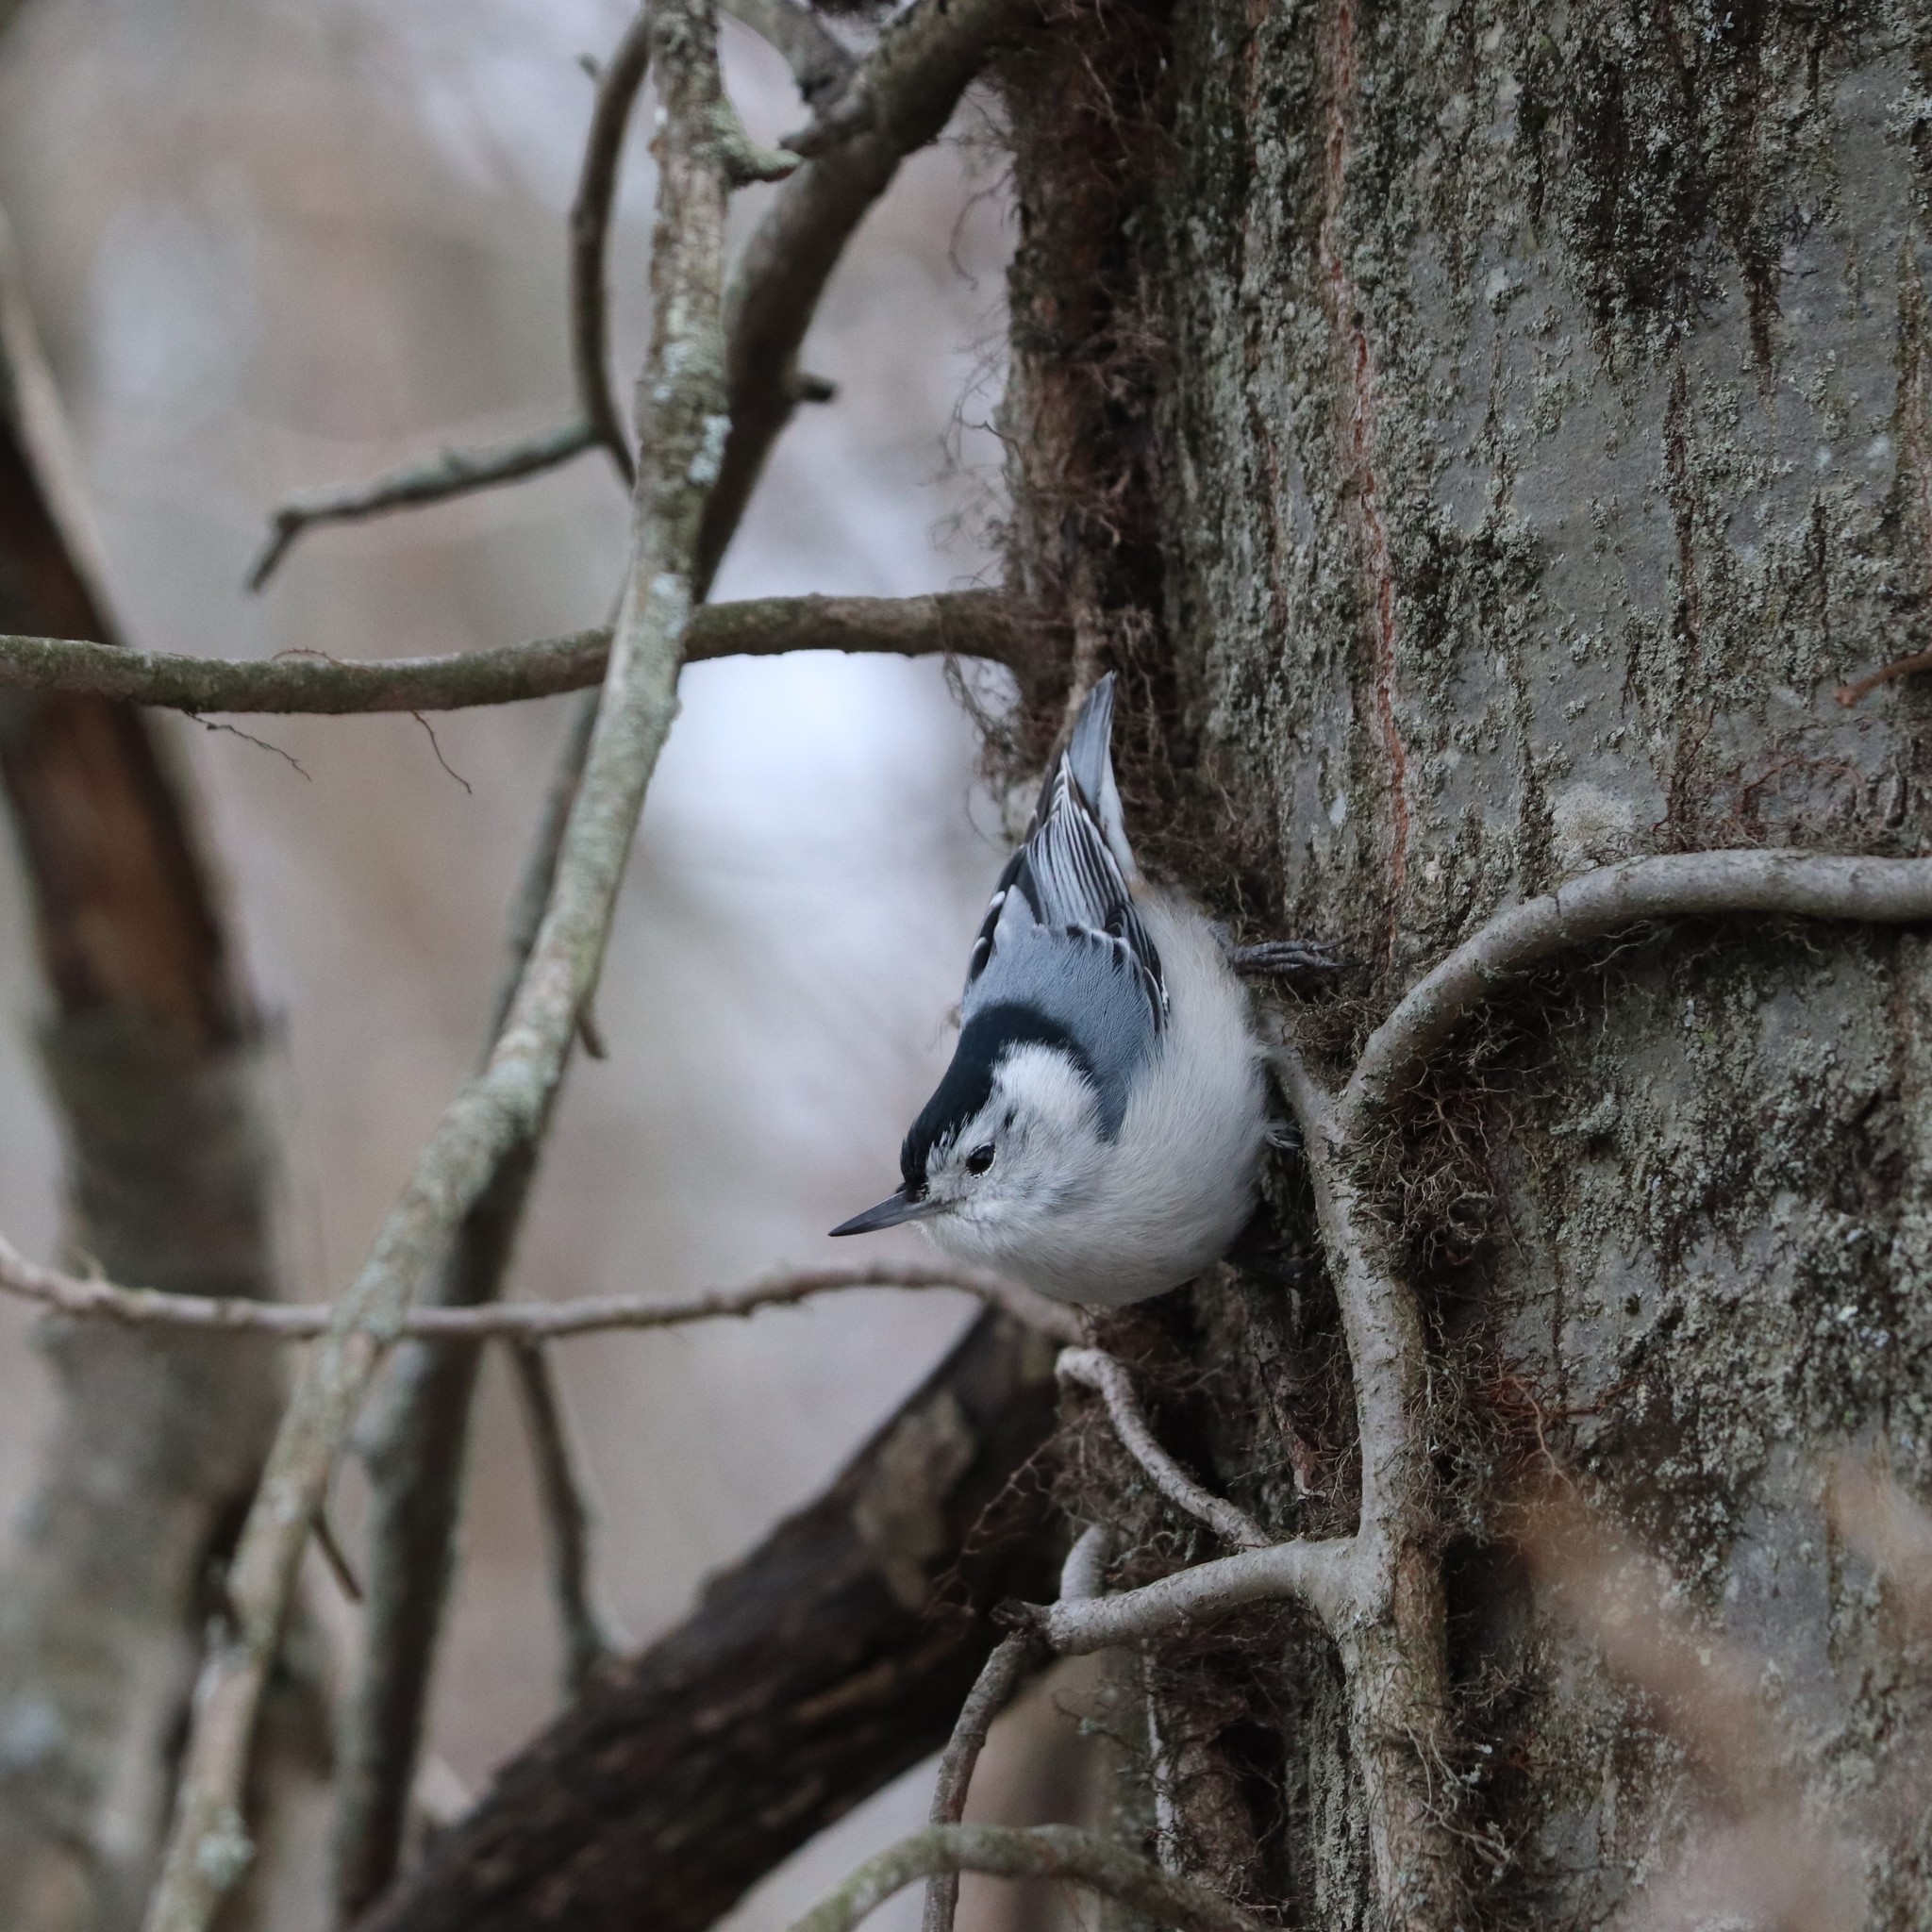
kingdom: Animalia
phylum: Chordata
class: Aves
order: Passeriformes
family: Sittidae
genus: Sitta
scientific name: Sitta carolinensis
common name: White-breasted nuthatch
